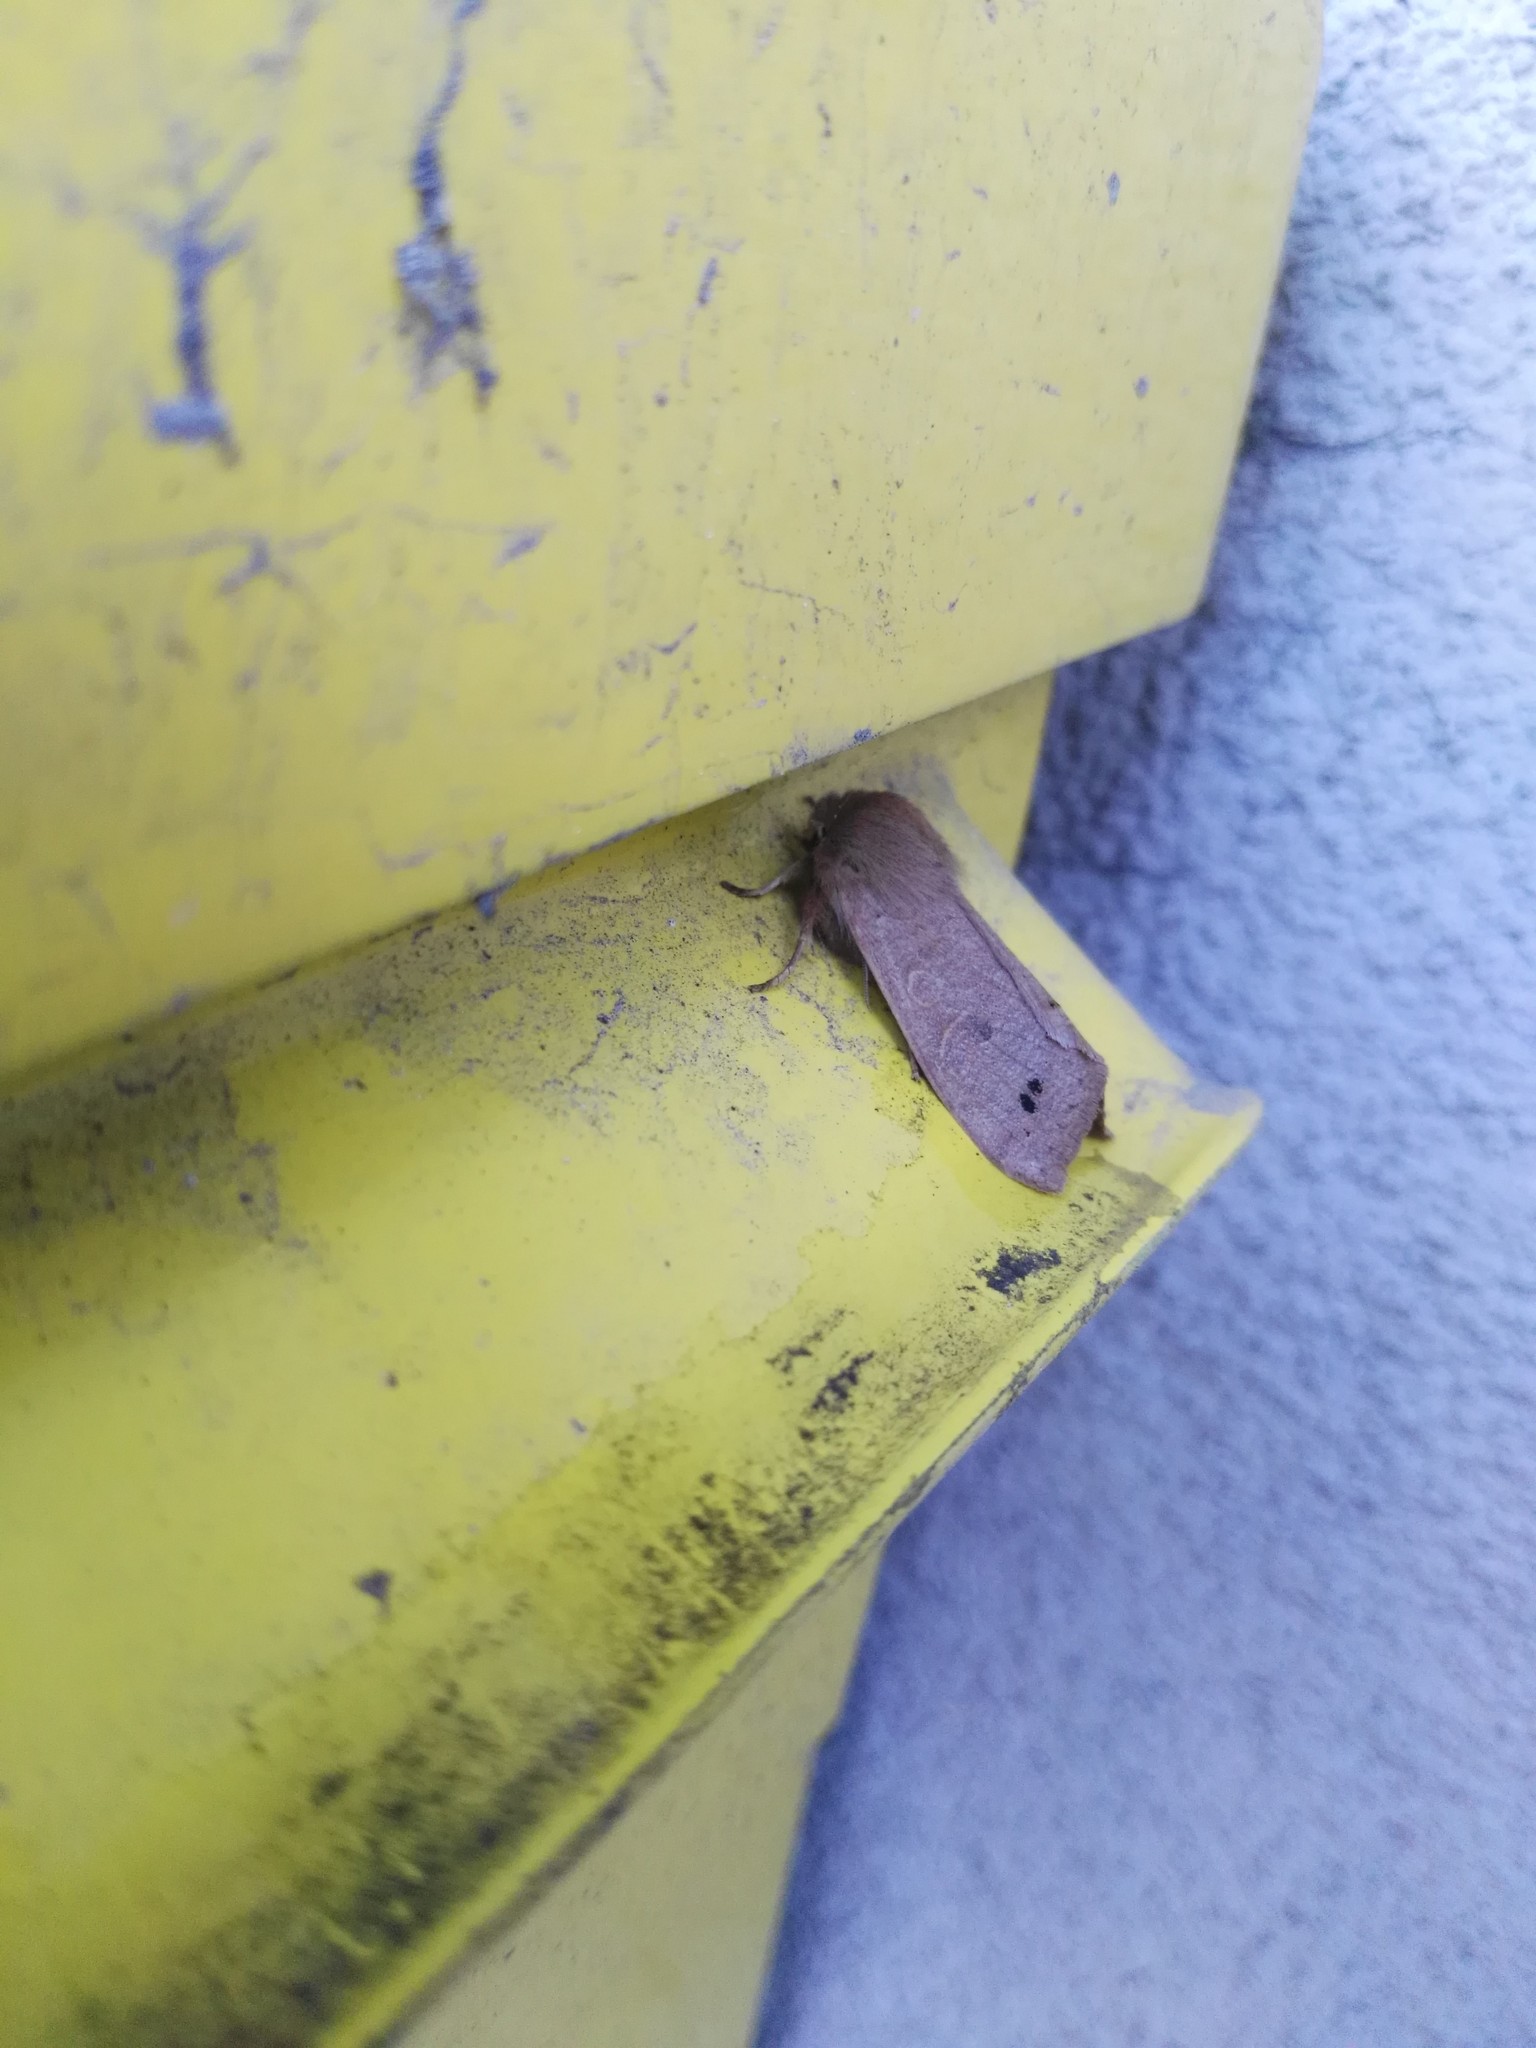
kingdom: Animalia
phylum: Arthropoda
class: Insecta
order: Lepidoptera
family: Noctuidae
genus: Anorthoa
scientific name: Anorthoa munda
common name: Twin-spotted quaker
